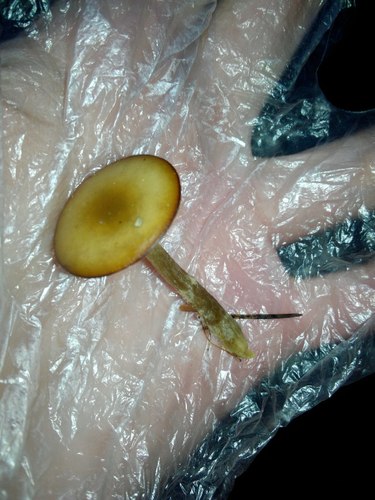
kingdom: Fungi
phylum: Basidiomycota
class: Agaricomycetes
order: Agaricales
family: Tricholomataceae
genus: Clitocybe
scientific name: Clitocybe
